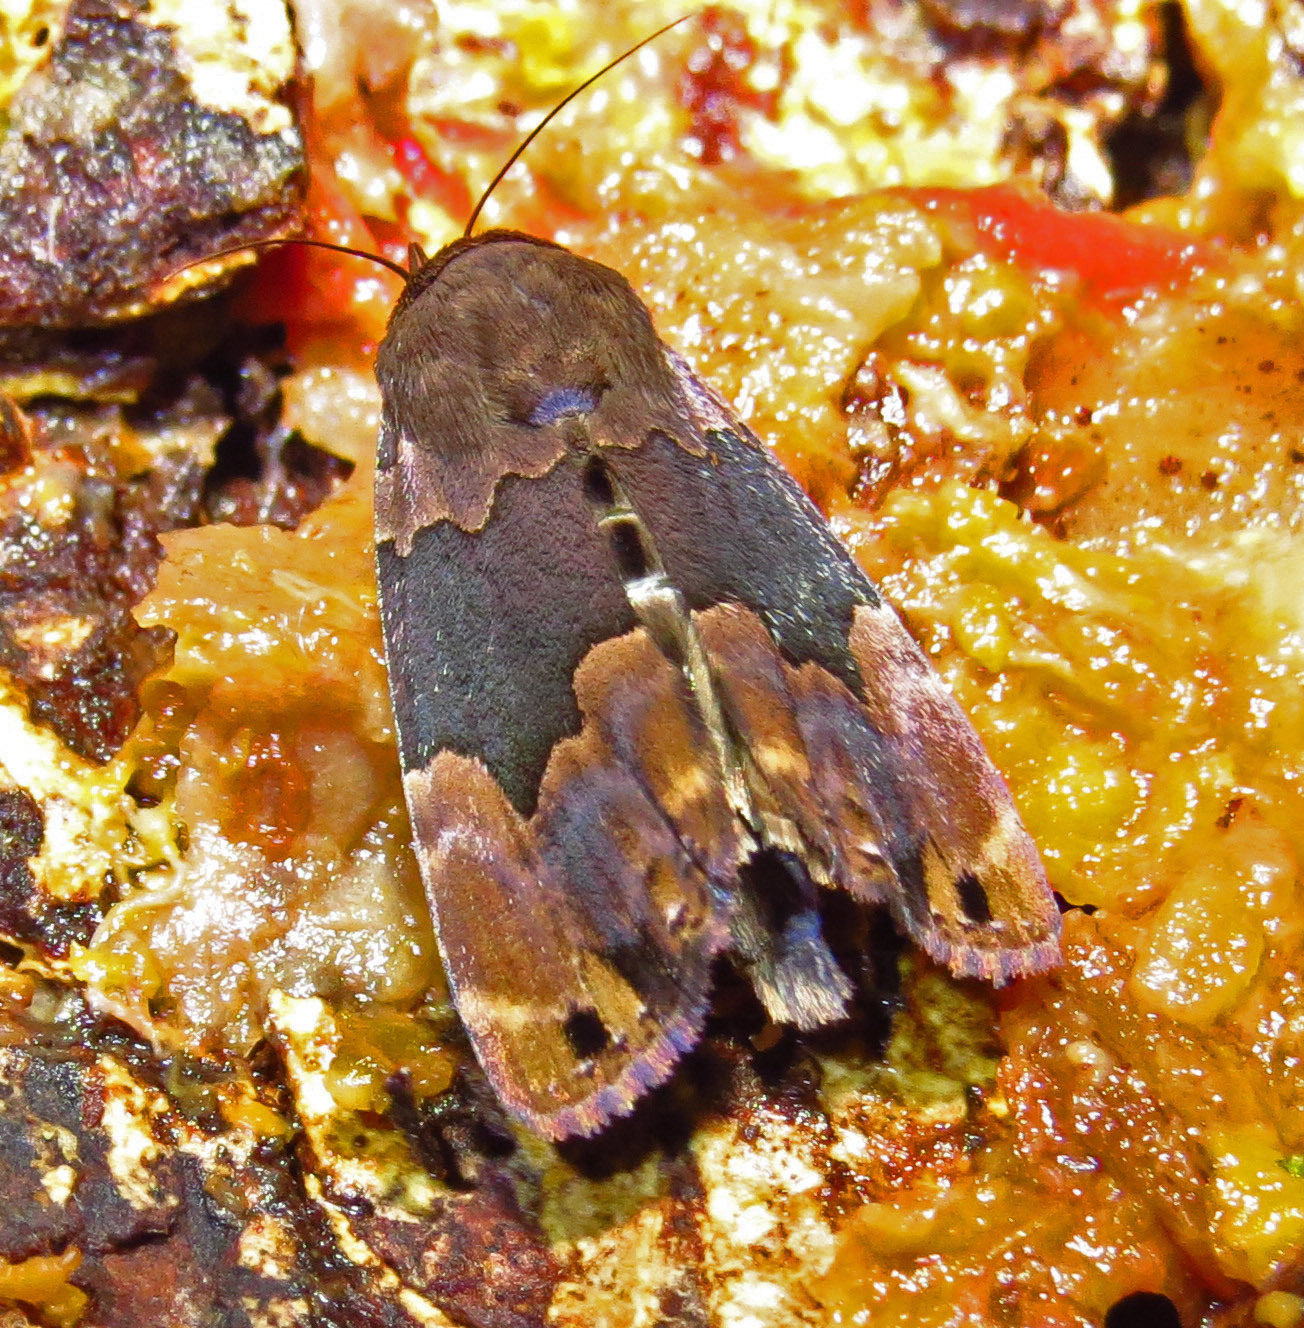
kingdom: Animalia
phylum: Arthropoda
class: Insecta
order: Lepidoptera
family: Erebidae
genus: Dinumma
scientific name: Dinumma deponens
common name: Purplish moth
